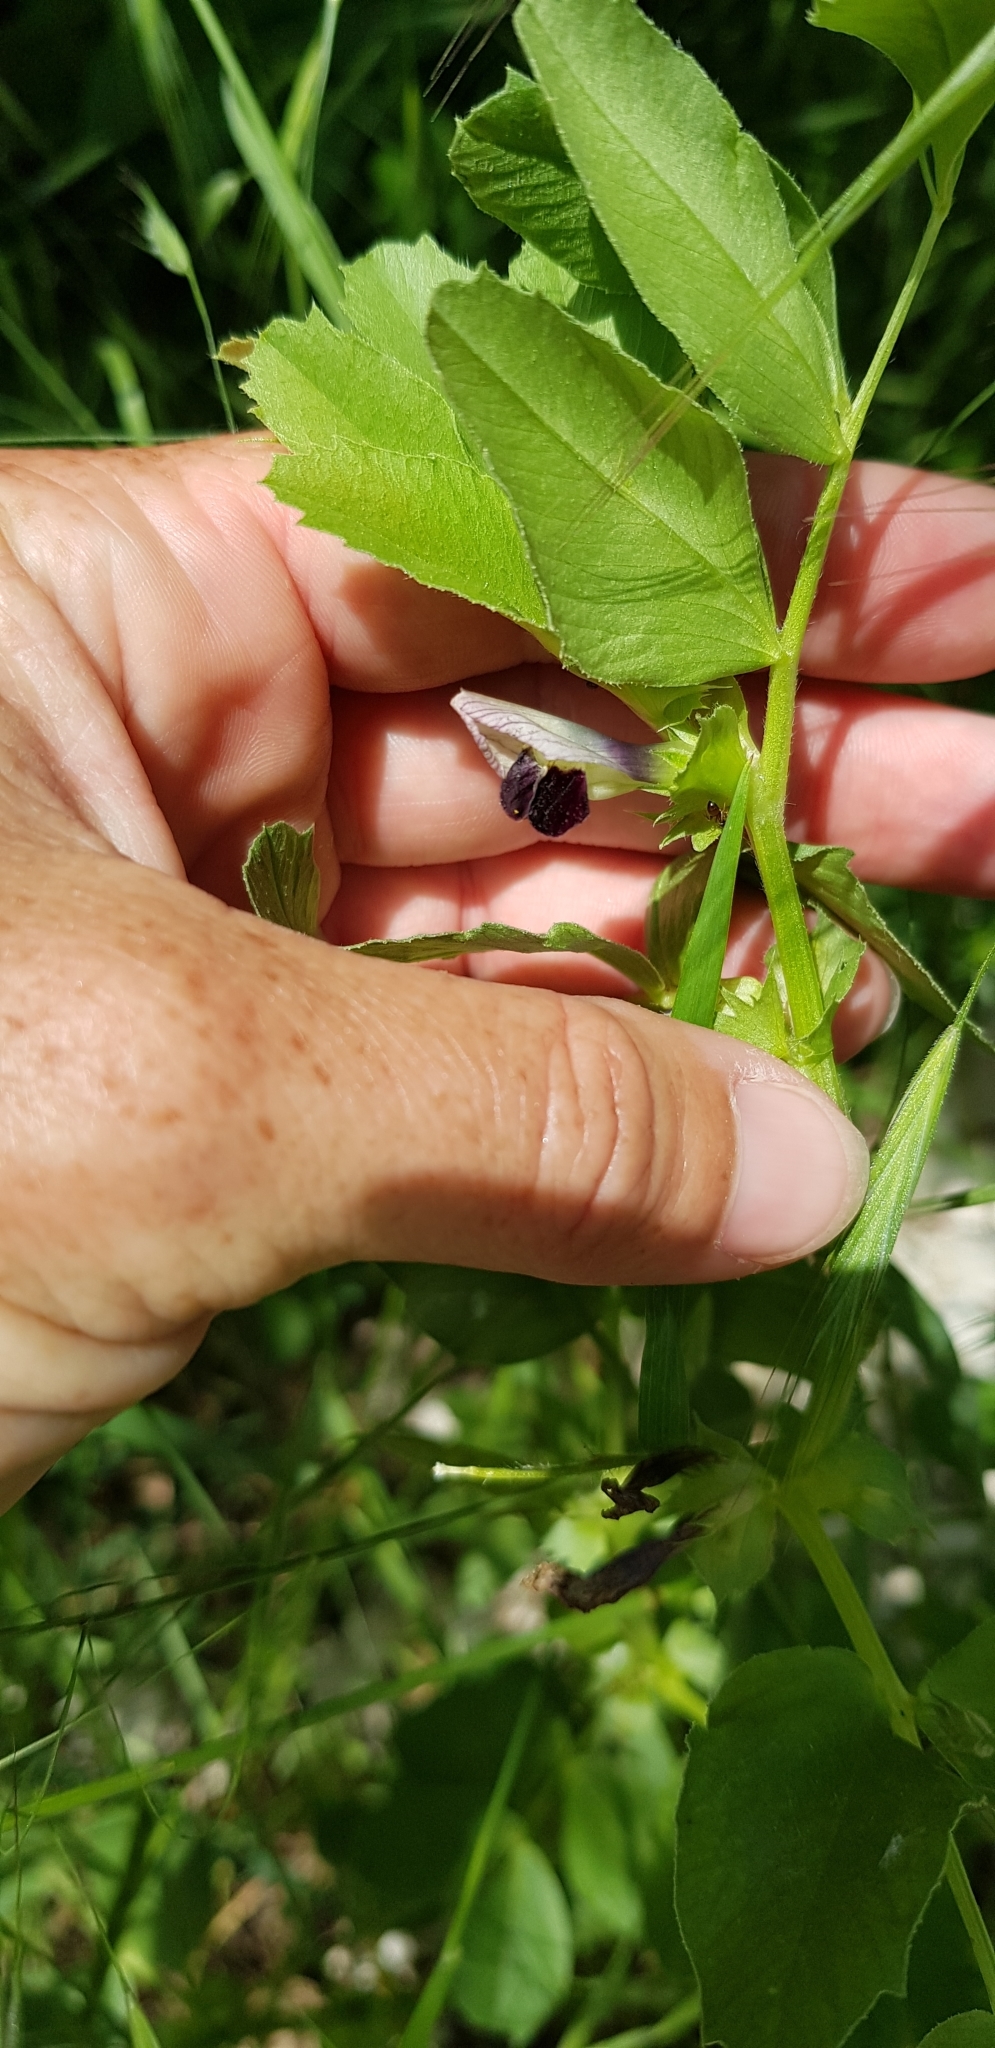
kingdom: Plantae
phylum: Tracheophyta
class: Magnoliopsida
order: Fabales
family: Fabaceae
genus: Vicia
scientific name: Vicia narbonensis
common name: Narbonne vetch
